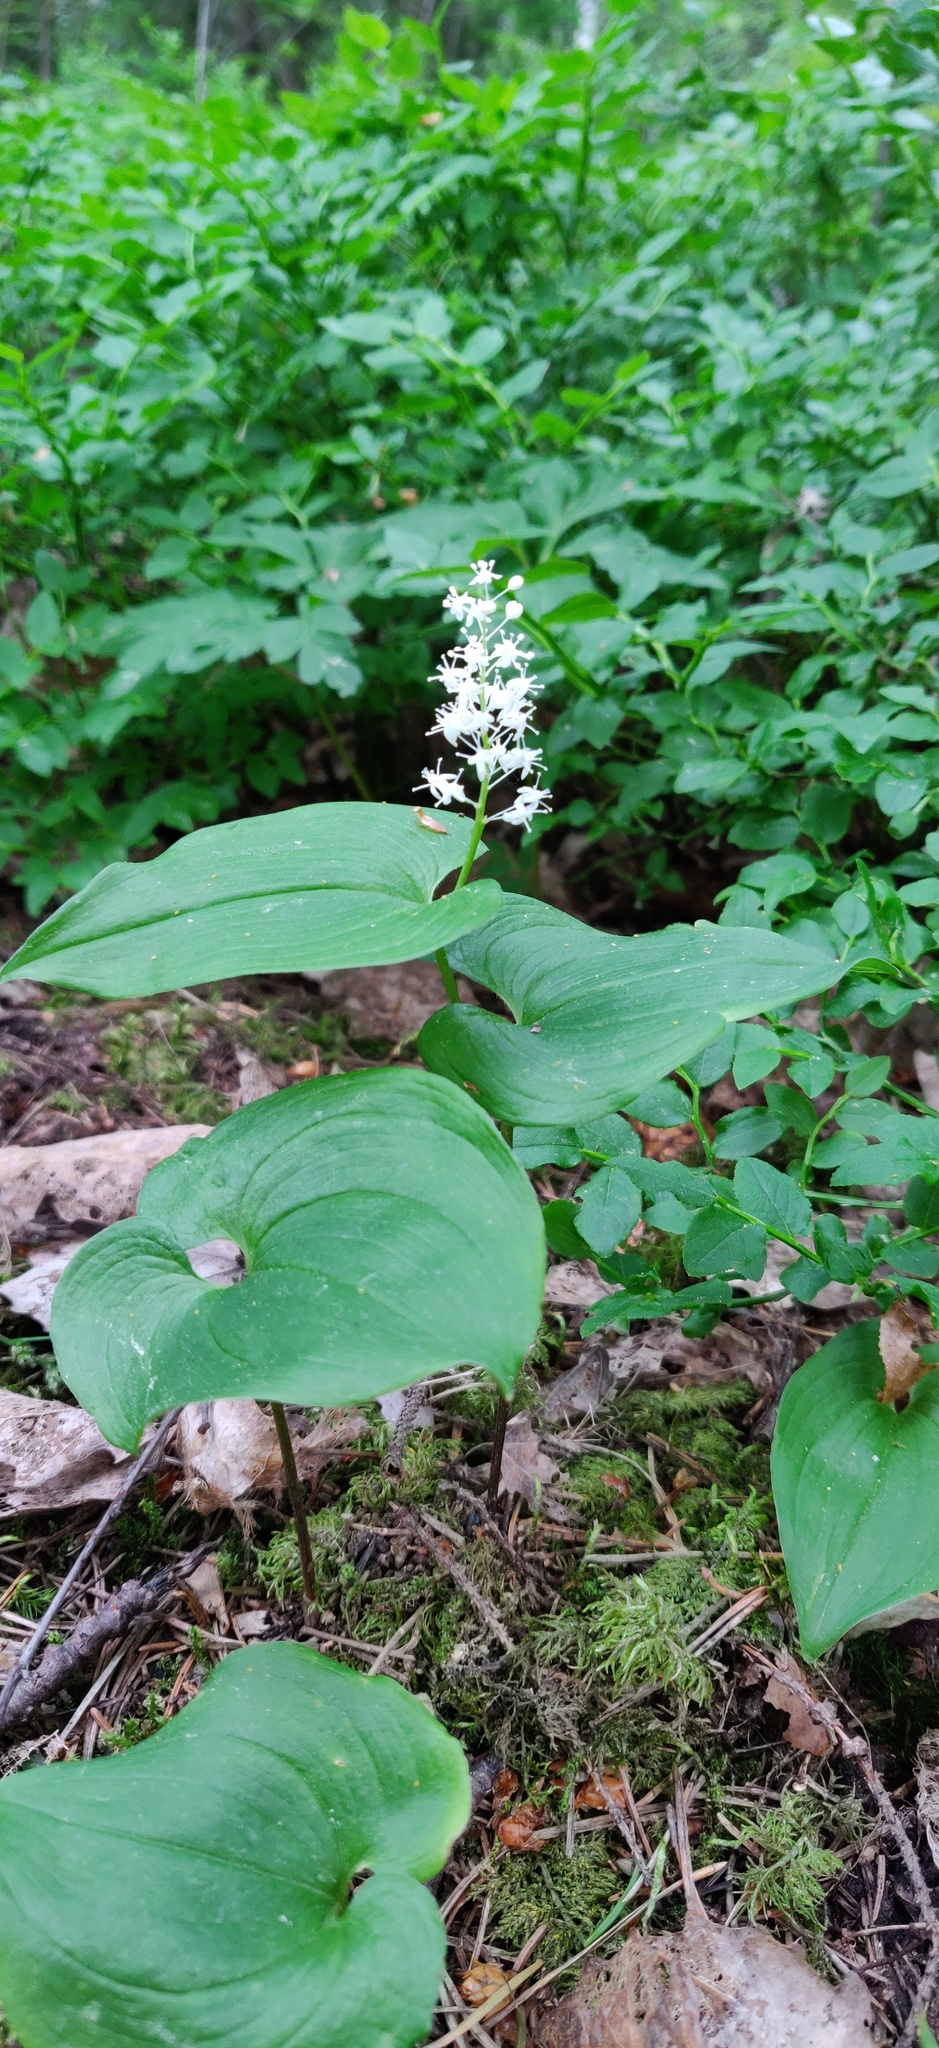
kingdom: Plantae
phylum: Tracheophyta
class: Liliopsida
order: Asparagales
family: Asparagaceae
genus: Maianthemum
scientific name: Maianthemum bifolium
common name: May lily
